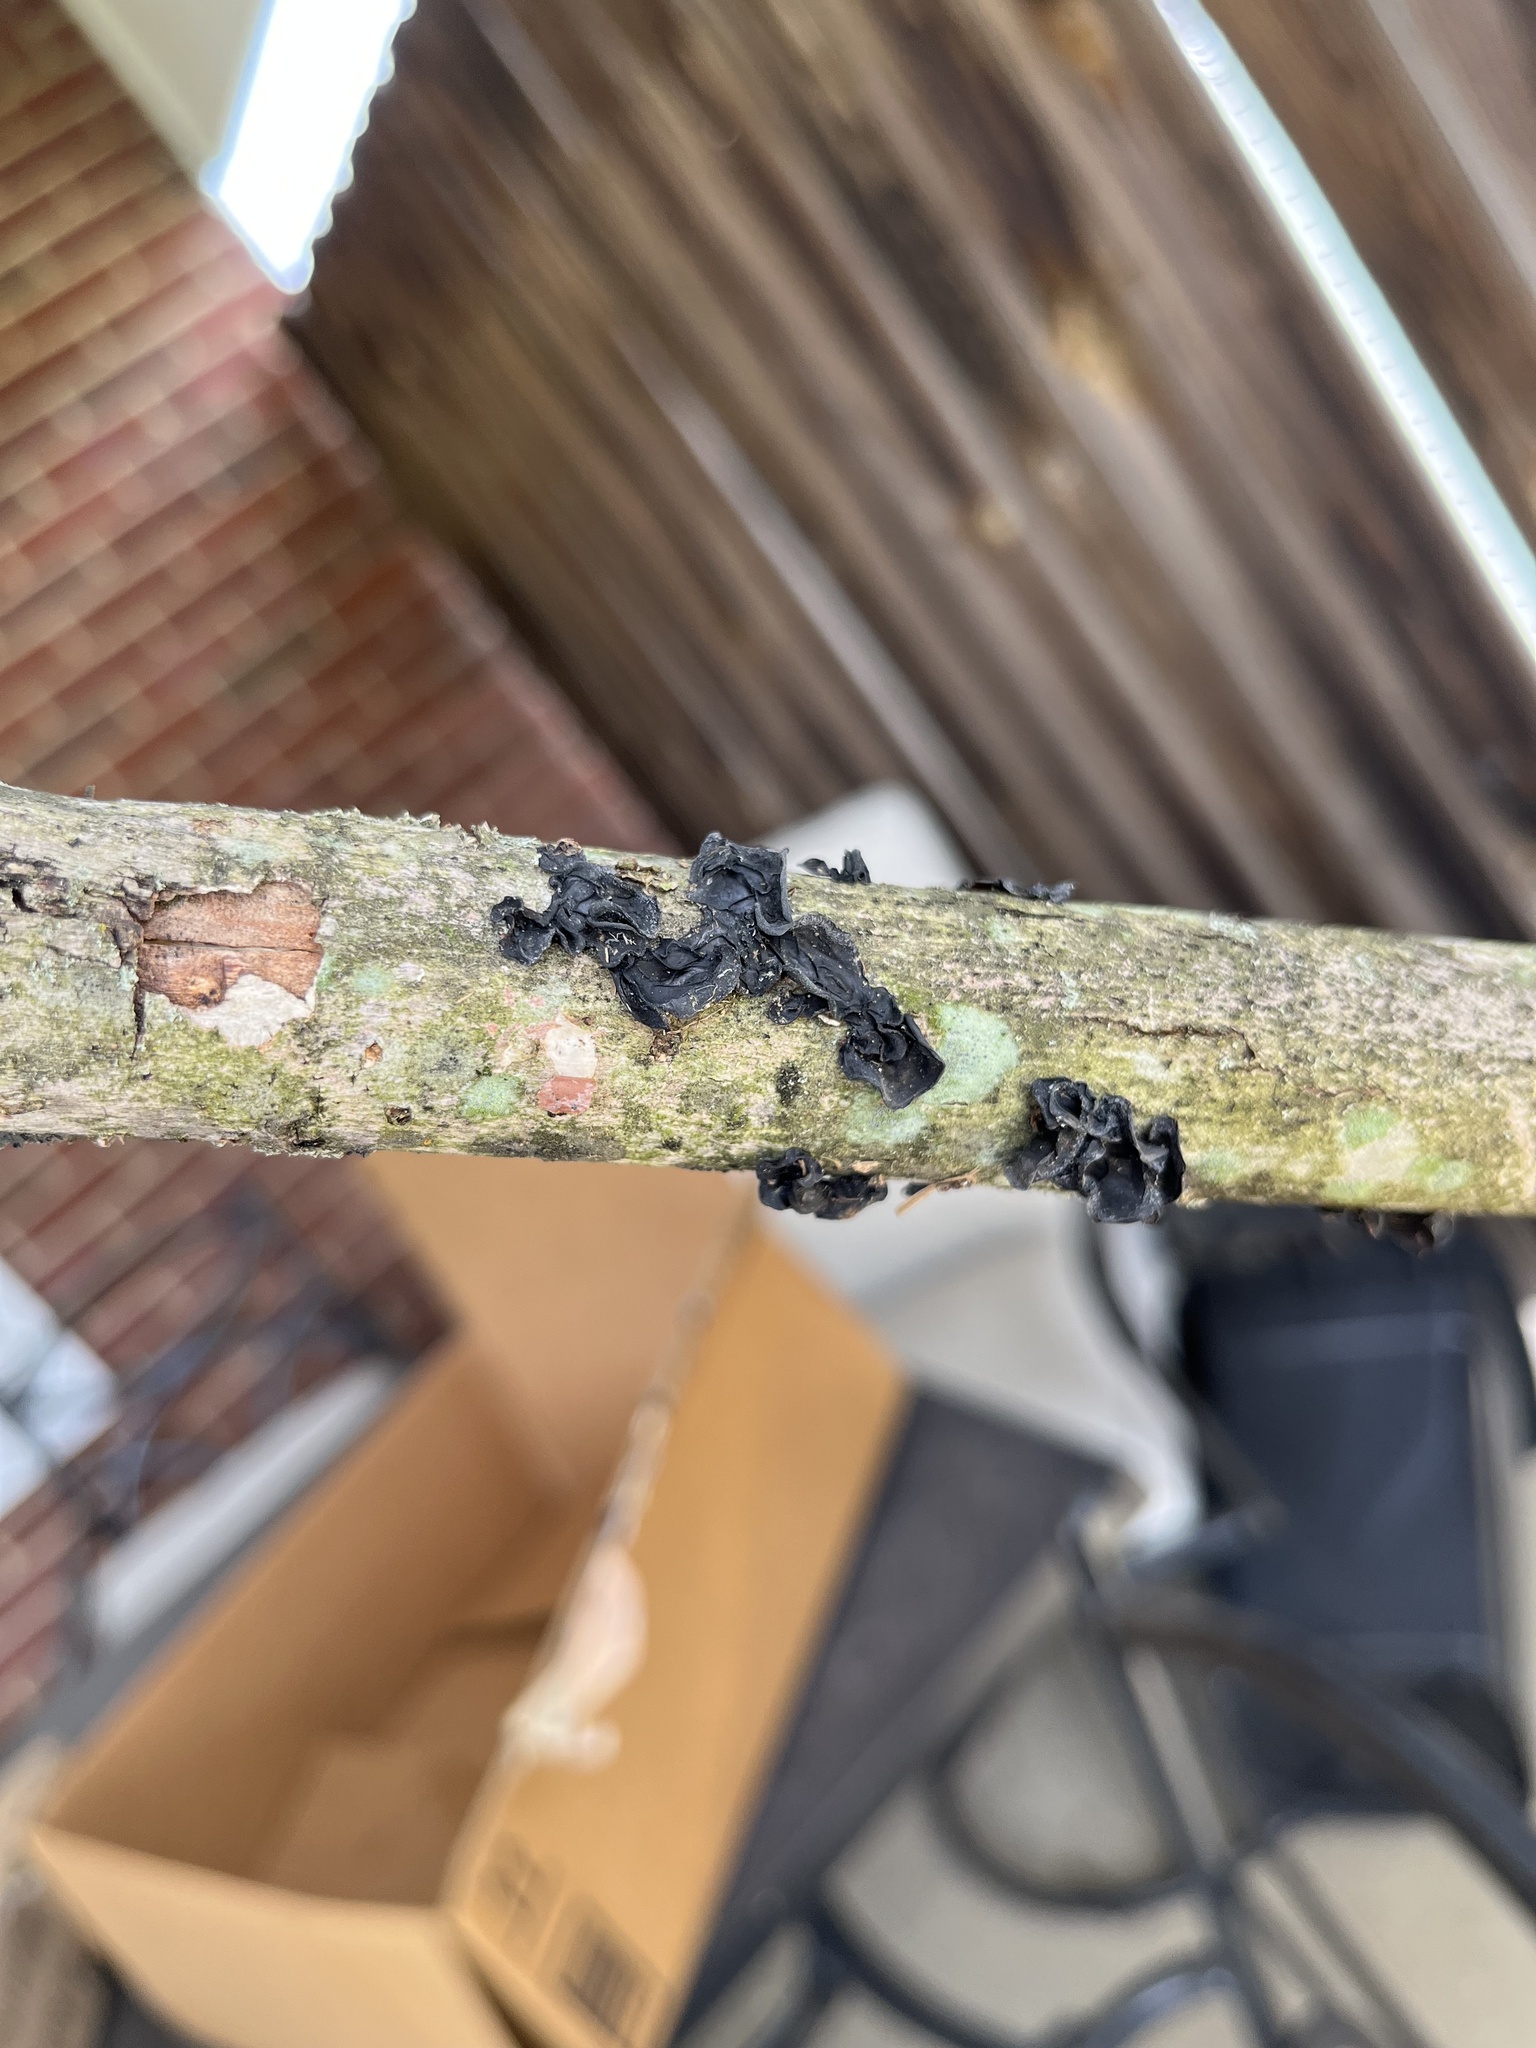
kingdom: Fungi
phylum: Basidiomycota
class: Agaricomycetes
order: Auriculariales
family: Auriculariaceae
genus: Exidia
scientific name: Exidia
